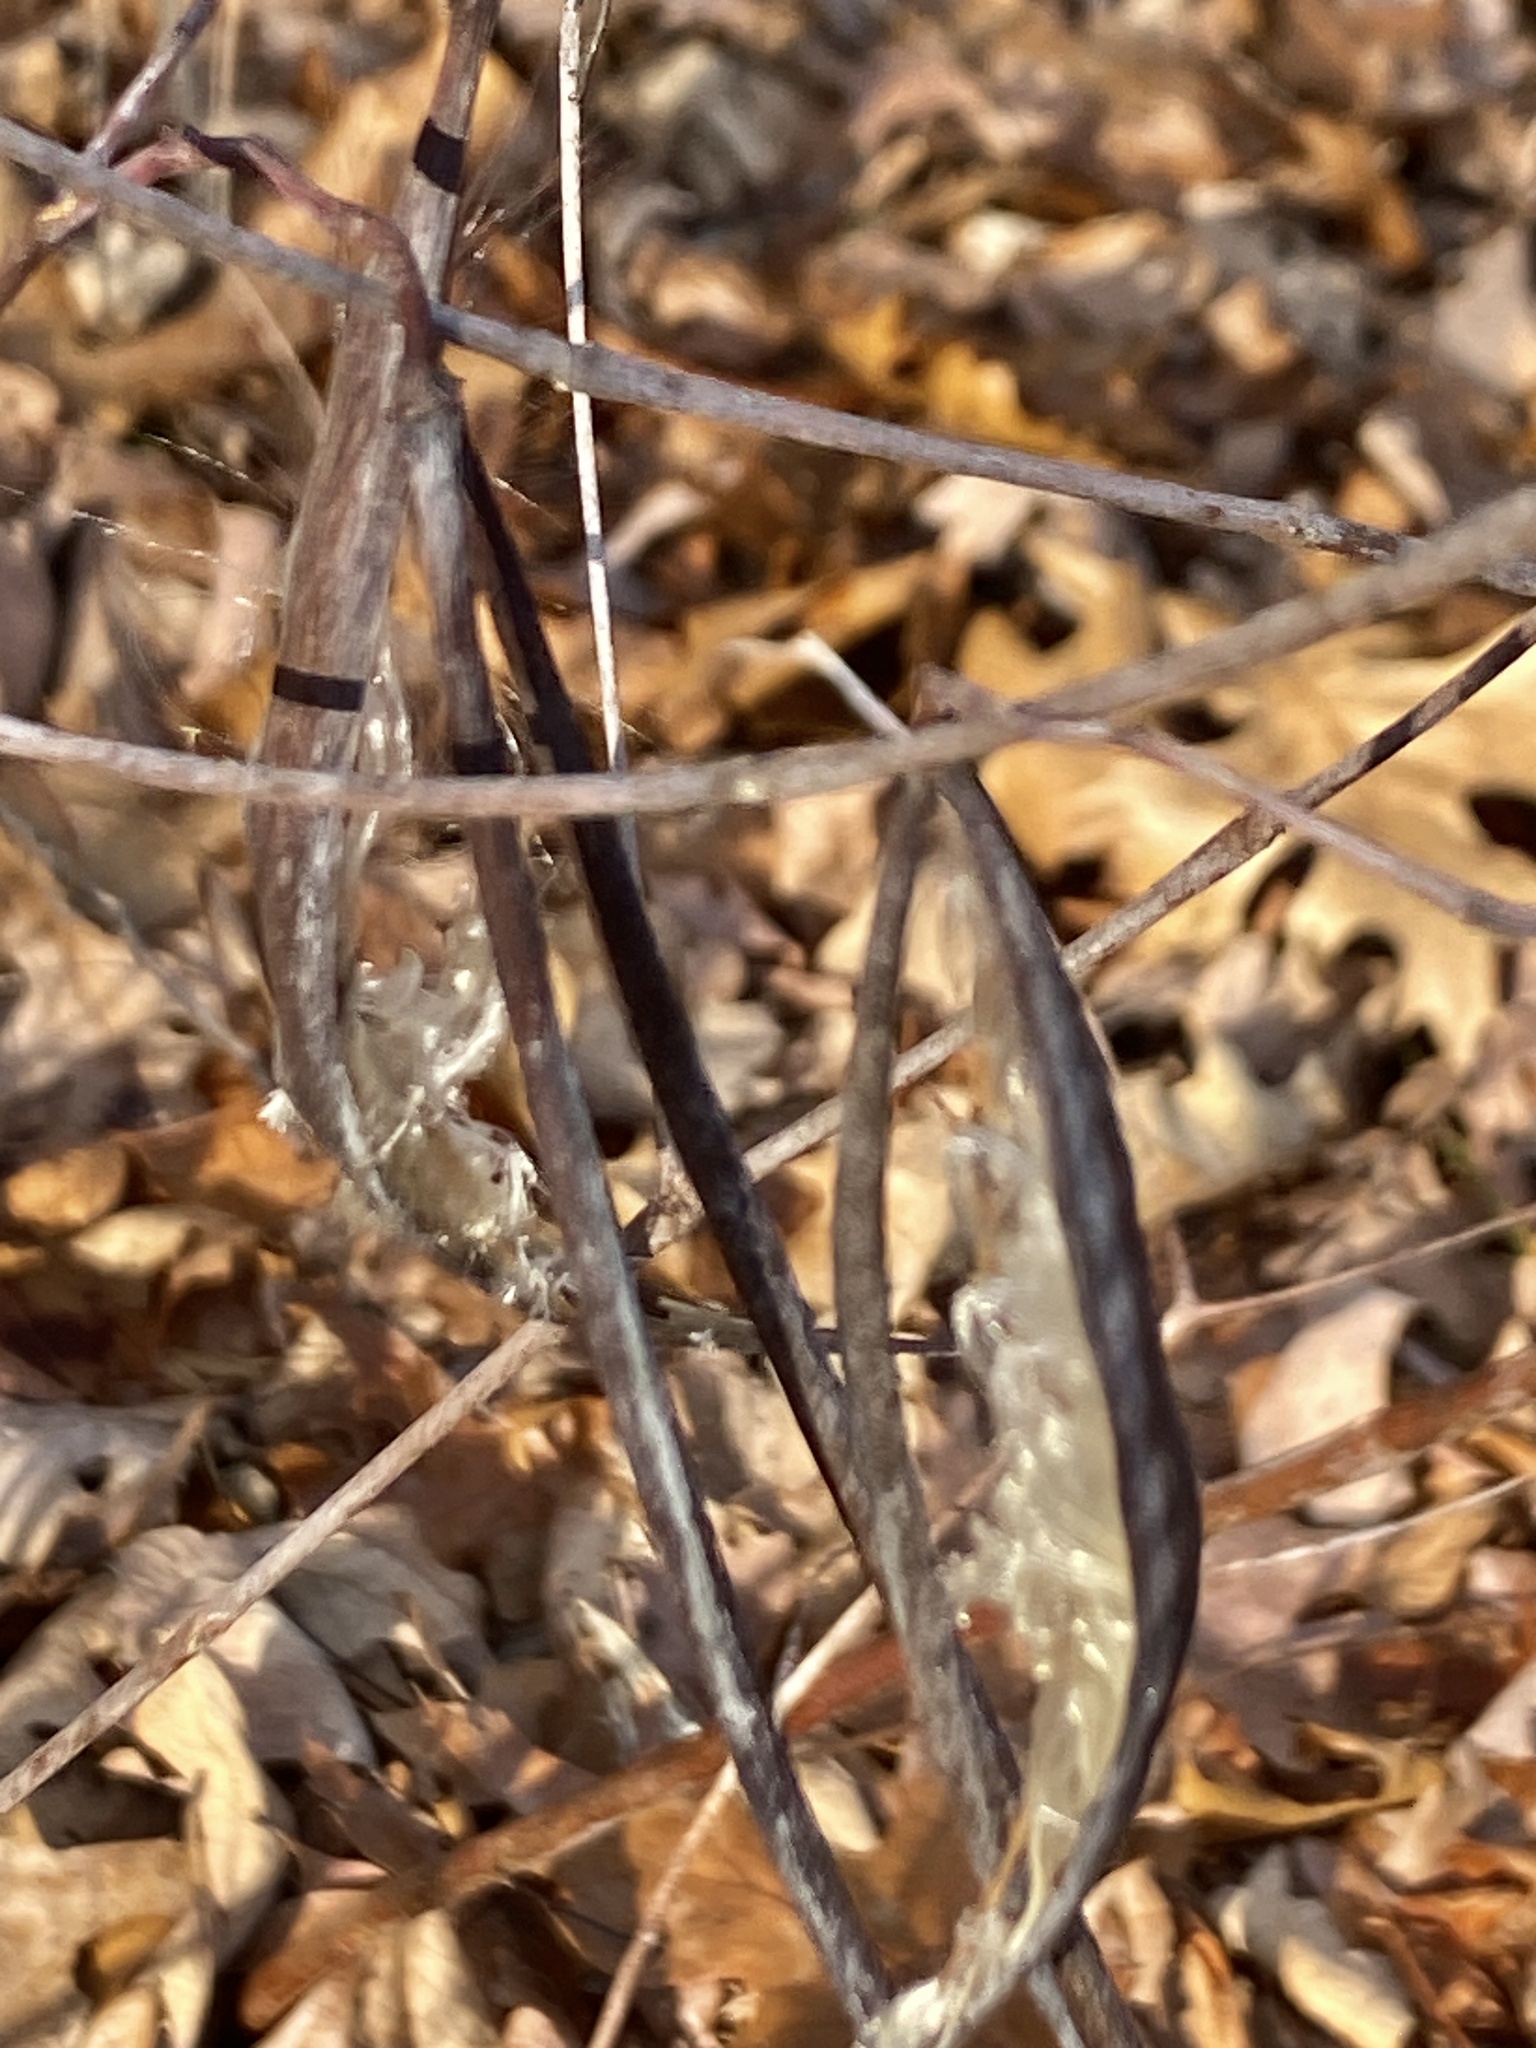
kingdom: Plantae
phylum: Tracheophyta
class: Magnoliopsida
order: Gentianales
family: Apocynaceae
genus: Apocynum
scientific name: Apocynum cannabinum
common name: Hemp dogbane
